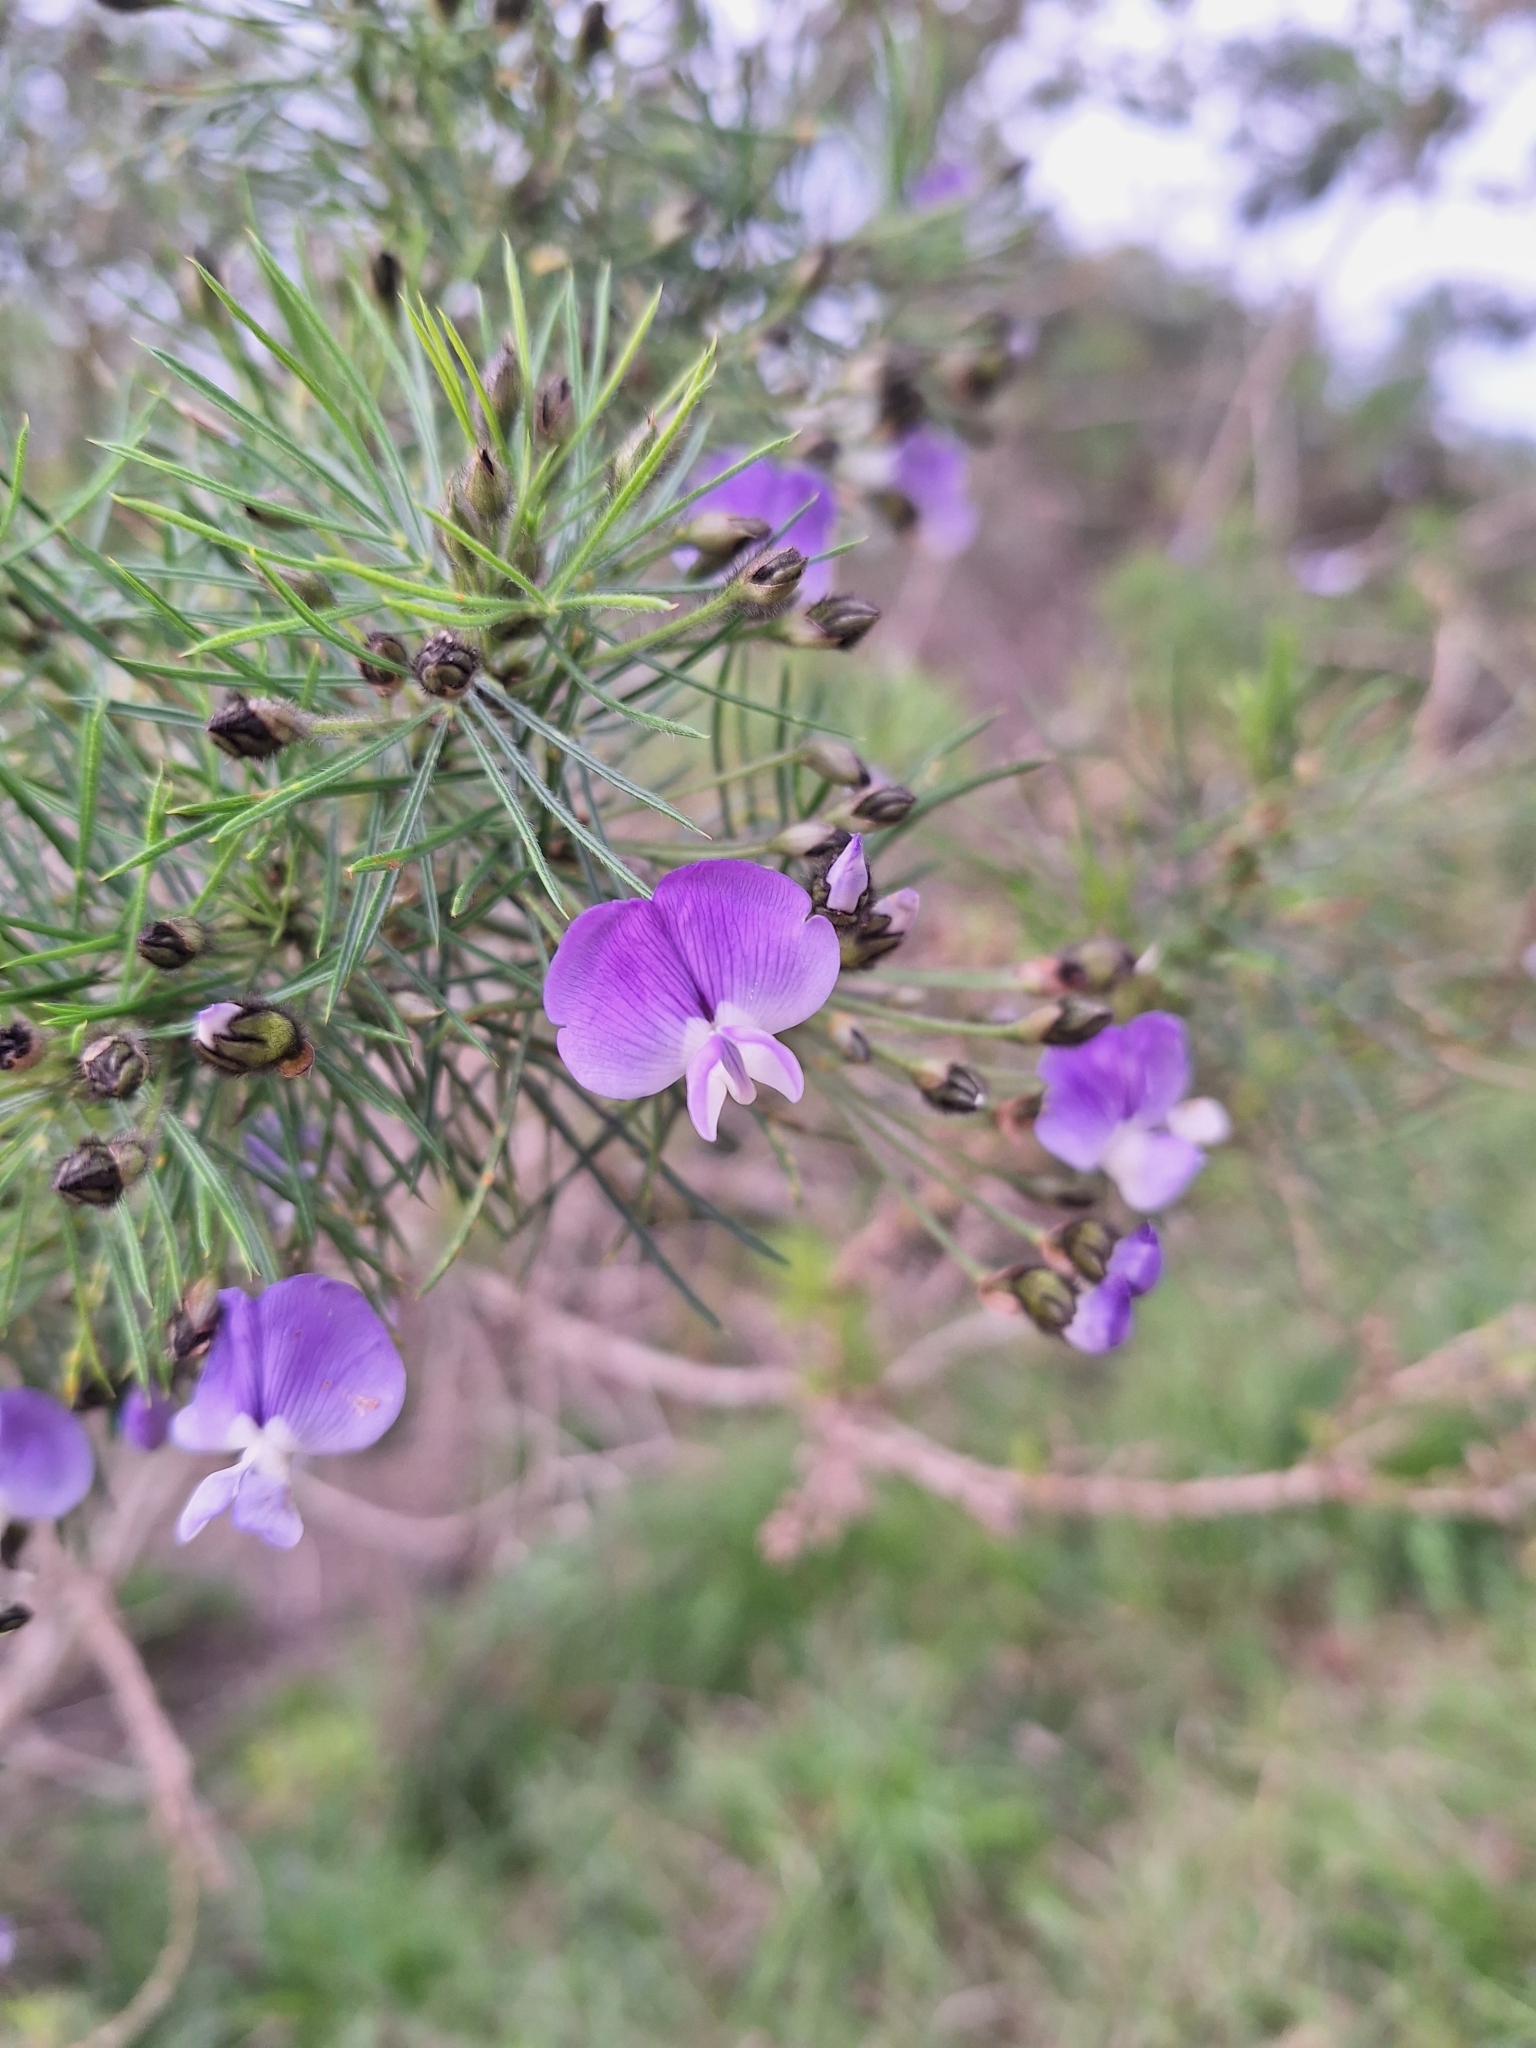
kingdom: Plantae
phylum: Tracheophyta
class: Magnoliopsida
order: Fabales
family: Fabaceae
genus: Psoralea
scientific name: Psoralea arborea
